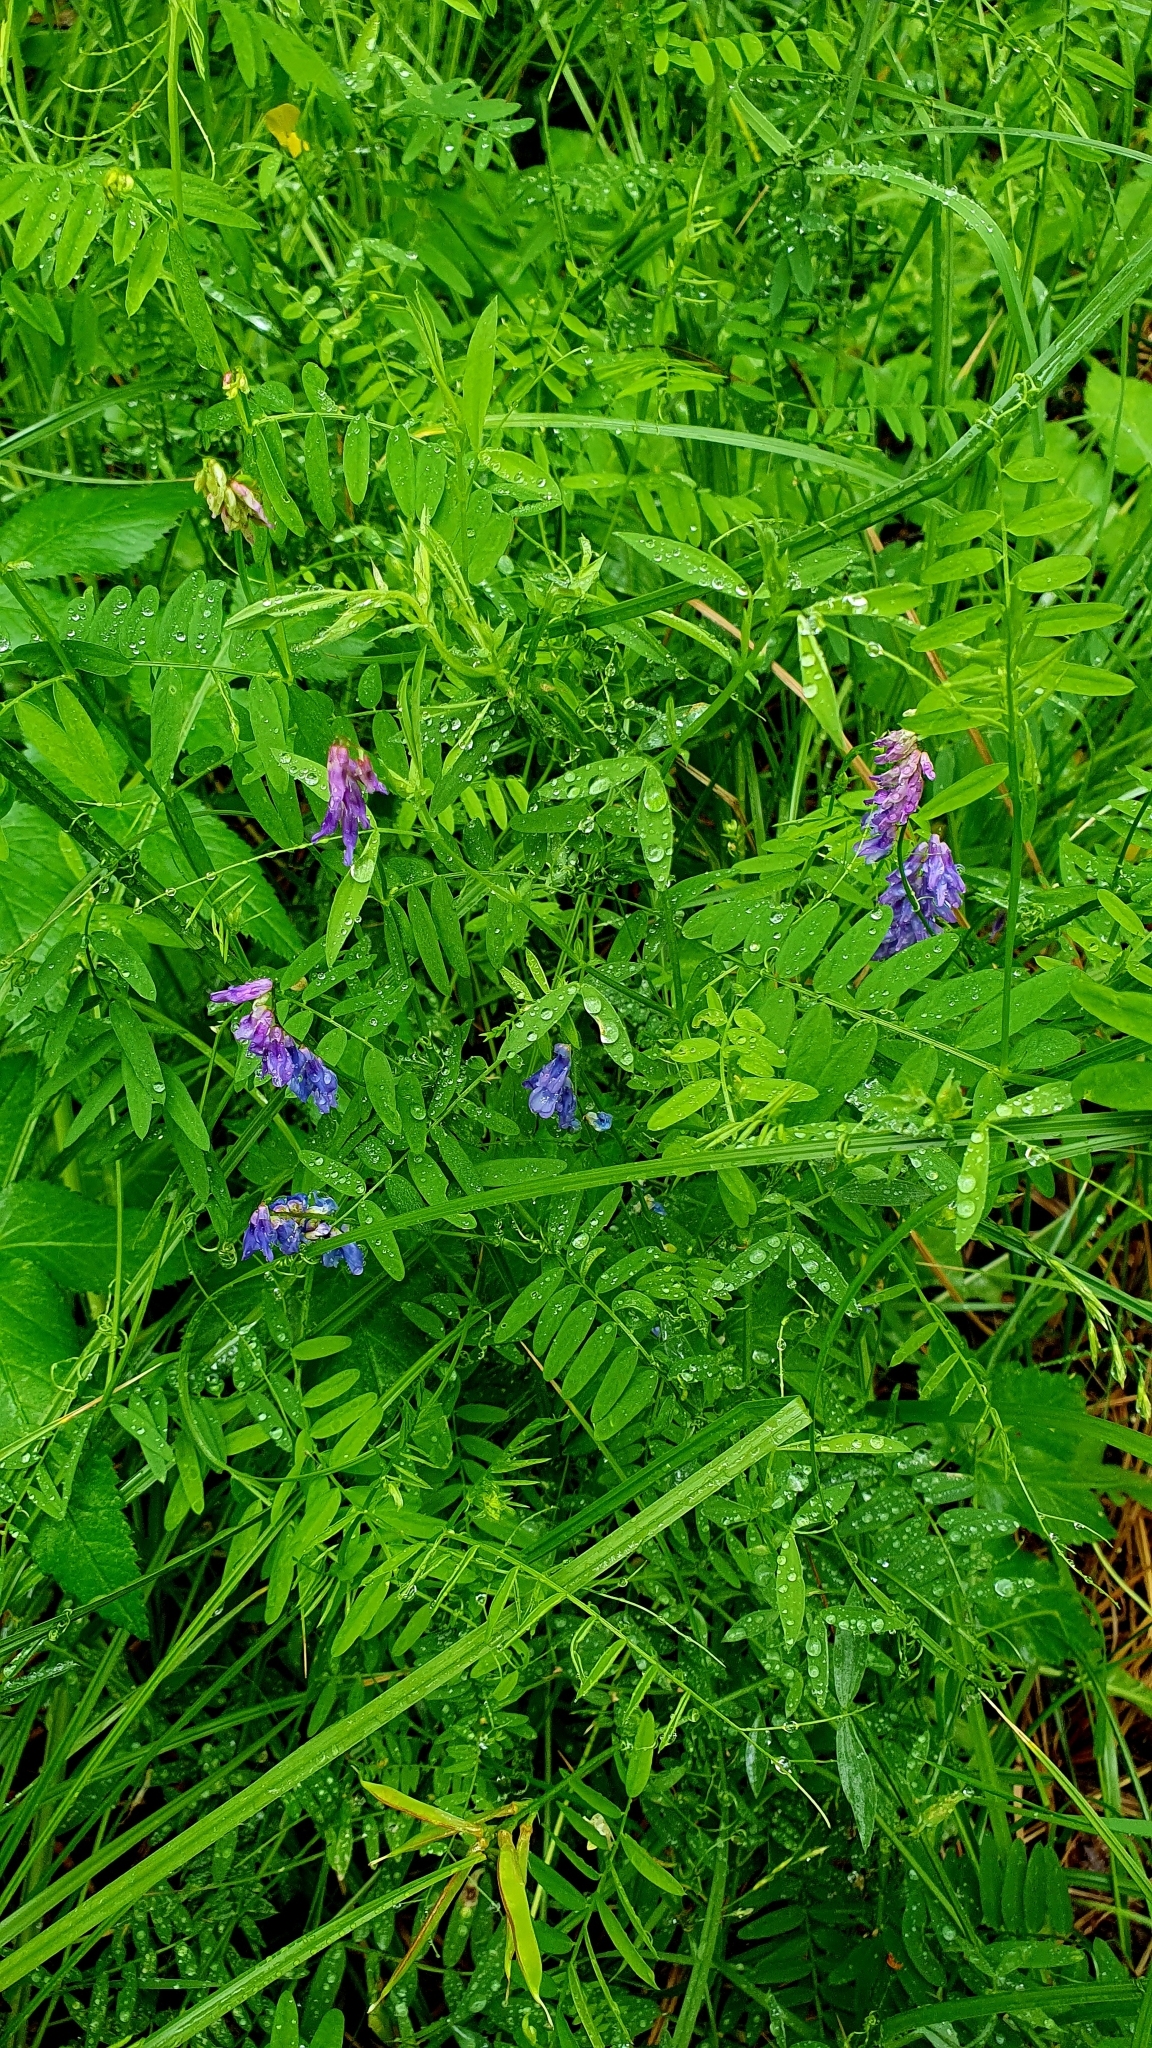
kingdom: Plantae
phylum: Tracheophyta
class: Magnoliopsida
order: Fabales
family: Fabaceae
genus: Vicia
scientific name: Vicia cracca
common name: Bird vetch
